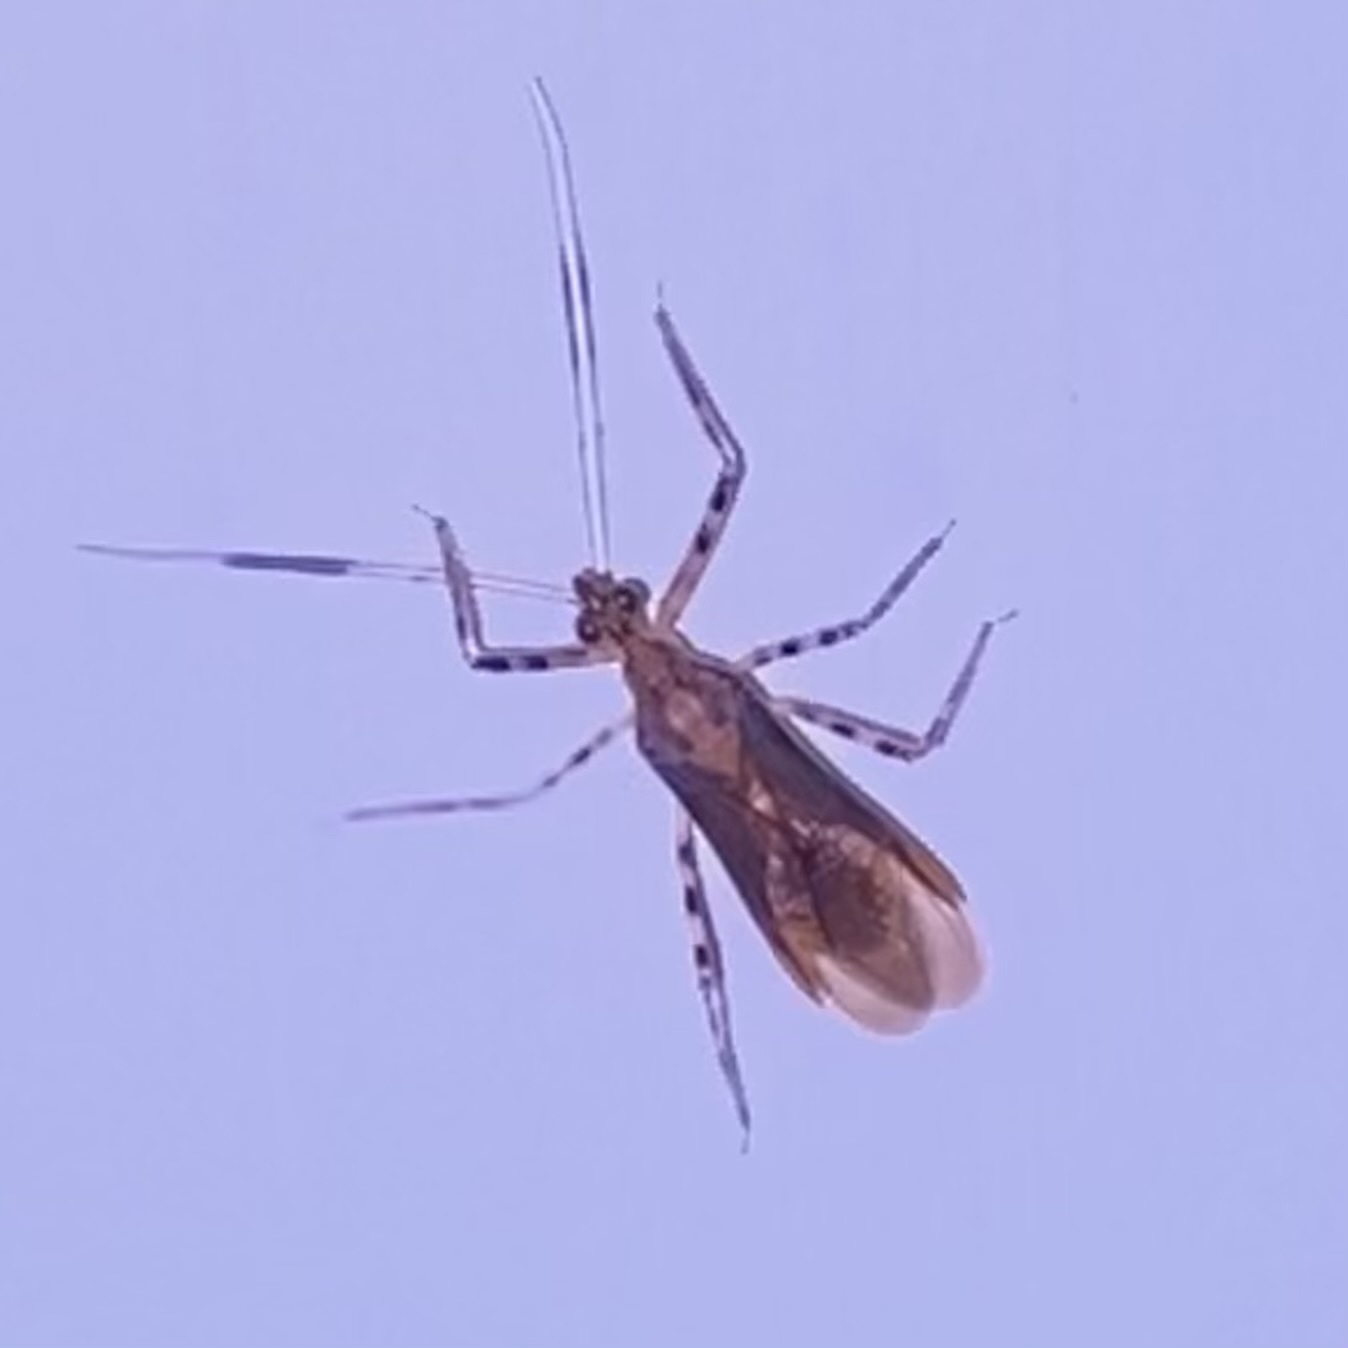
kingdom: Animalia
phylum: Arthropoda
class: Insecta
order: Hemiptera
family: Reduviidae
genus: Castolus
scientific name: Castolus ferox
